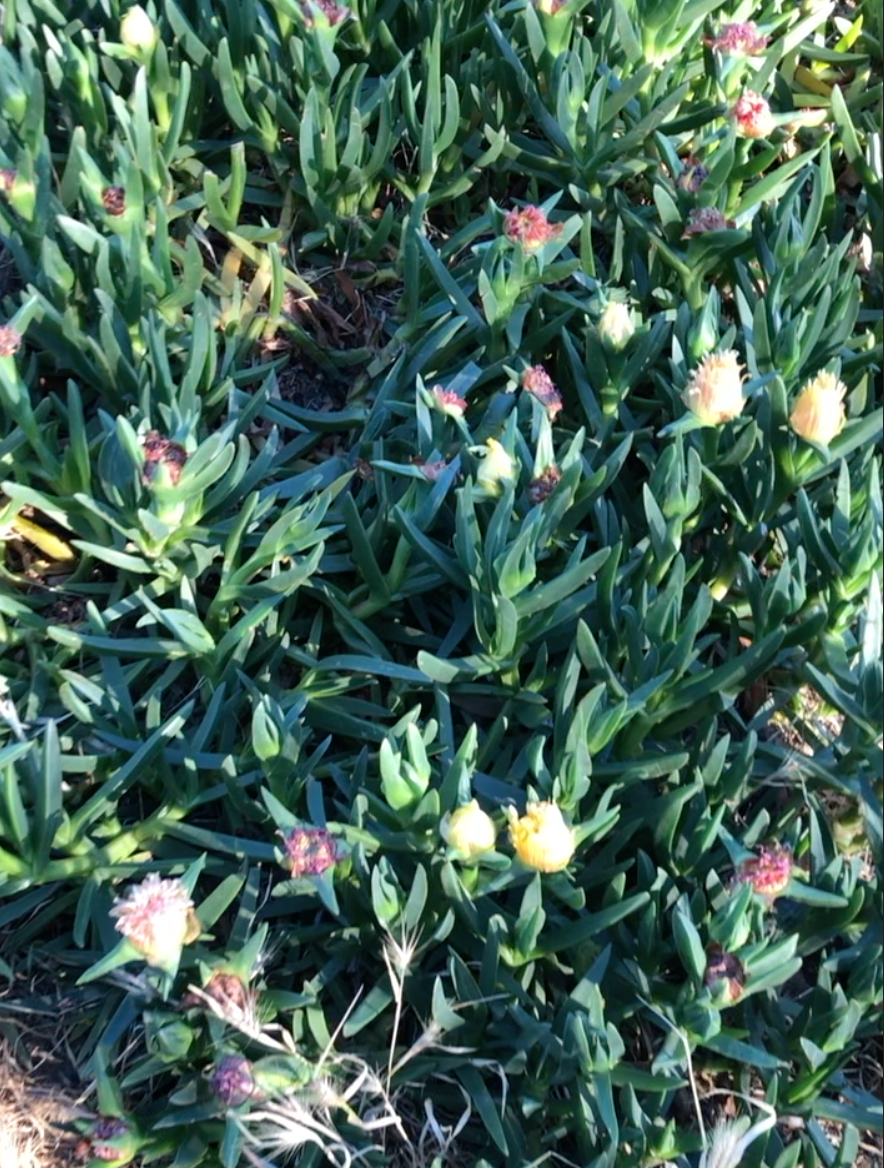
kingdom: Plantae
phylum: Tracheophyta
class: Magnoliopsida
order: Caryophyllales
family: Aizoaceae
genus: Carpobrotus
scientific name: Carpobrotus edulis
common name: Hottentot-fig
